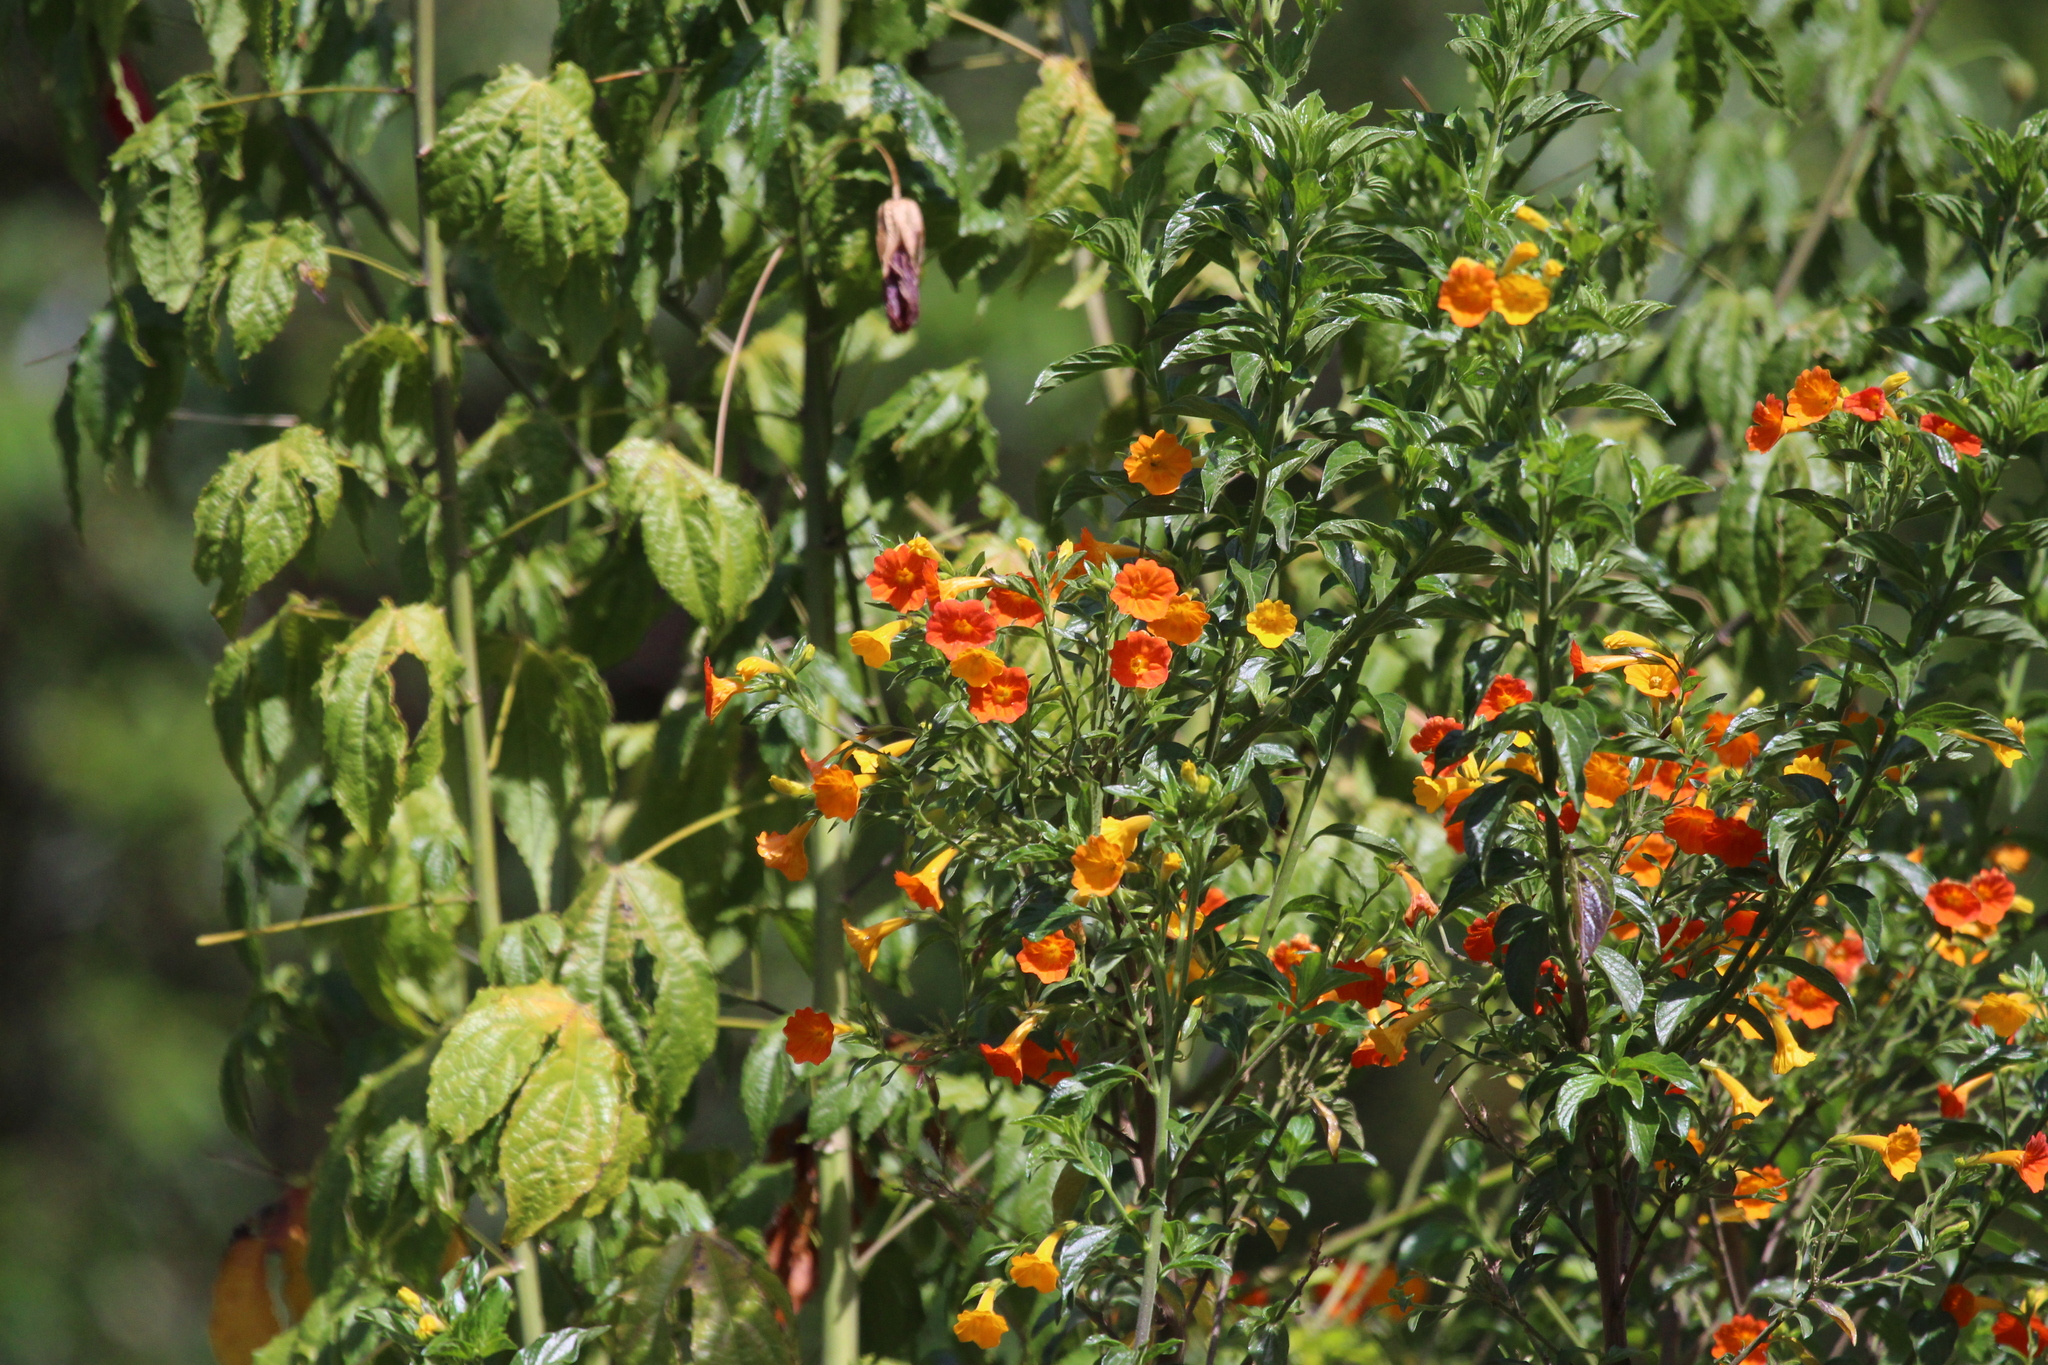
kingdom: Plantae
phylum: Tracheophyta
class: Magnoliopsida
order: Solanales
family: Solanaceae
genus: Streptosolen
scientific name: Streptosolen jamesonii
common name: Marmalade bush
